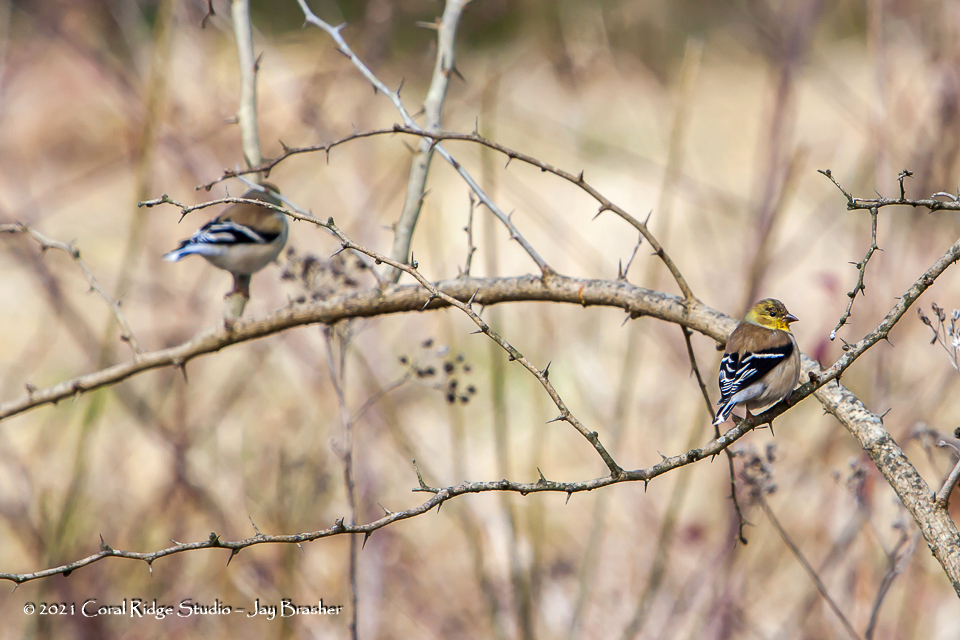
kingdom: Animalia
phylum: Chordata
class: Aves
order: Passeriformes
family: Fringillidae
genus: Spinus
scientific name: Spinus tristis
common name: American goldfinch
